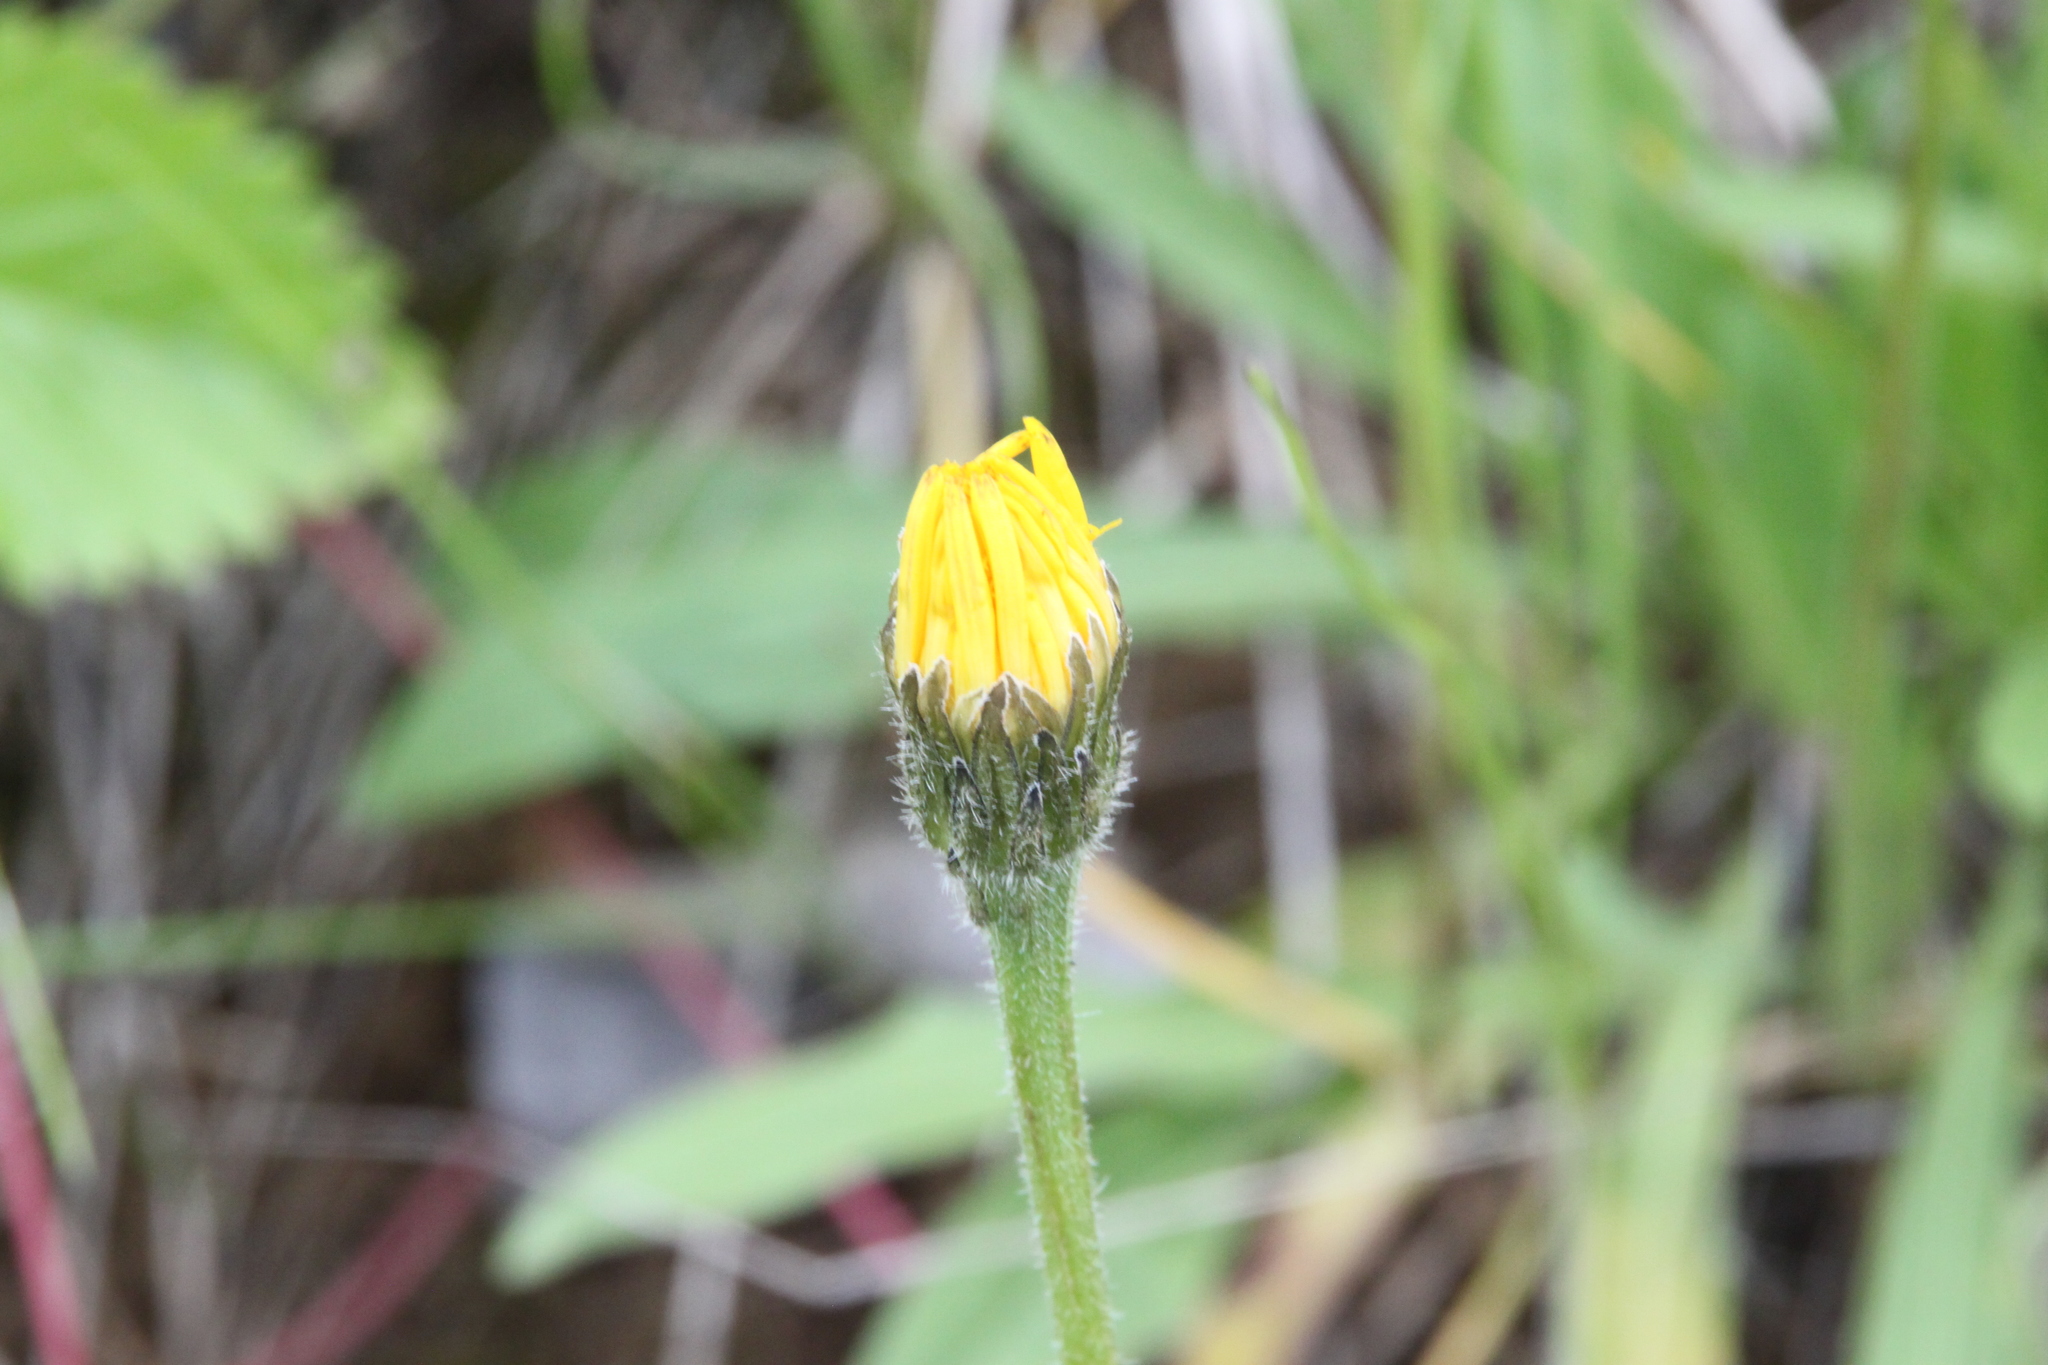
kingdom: Plantae
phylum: Tracheophyta
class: Magnoliopsida
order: Asterales
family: Asteraceae
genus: Leontodon
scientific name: Leontodon hispidus
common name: Rough hawkbit
